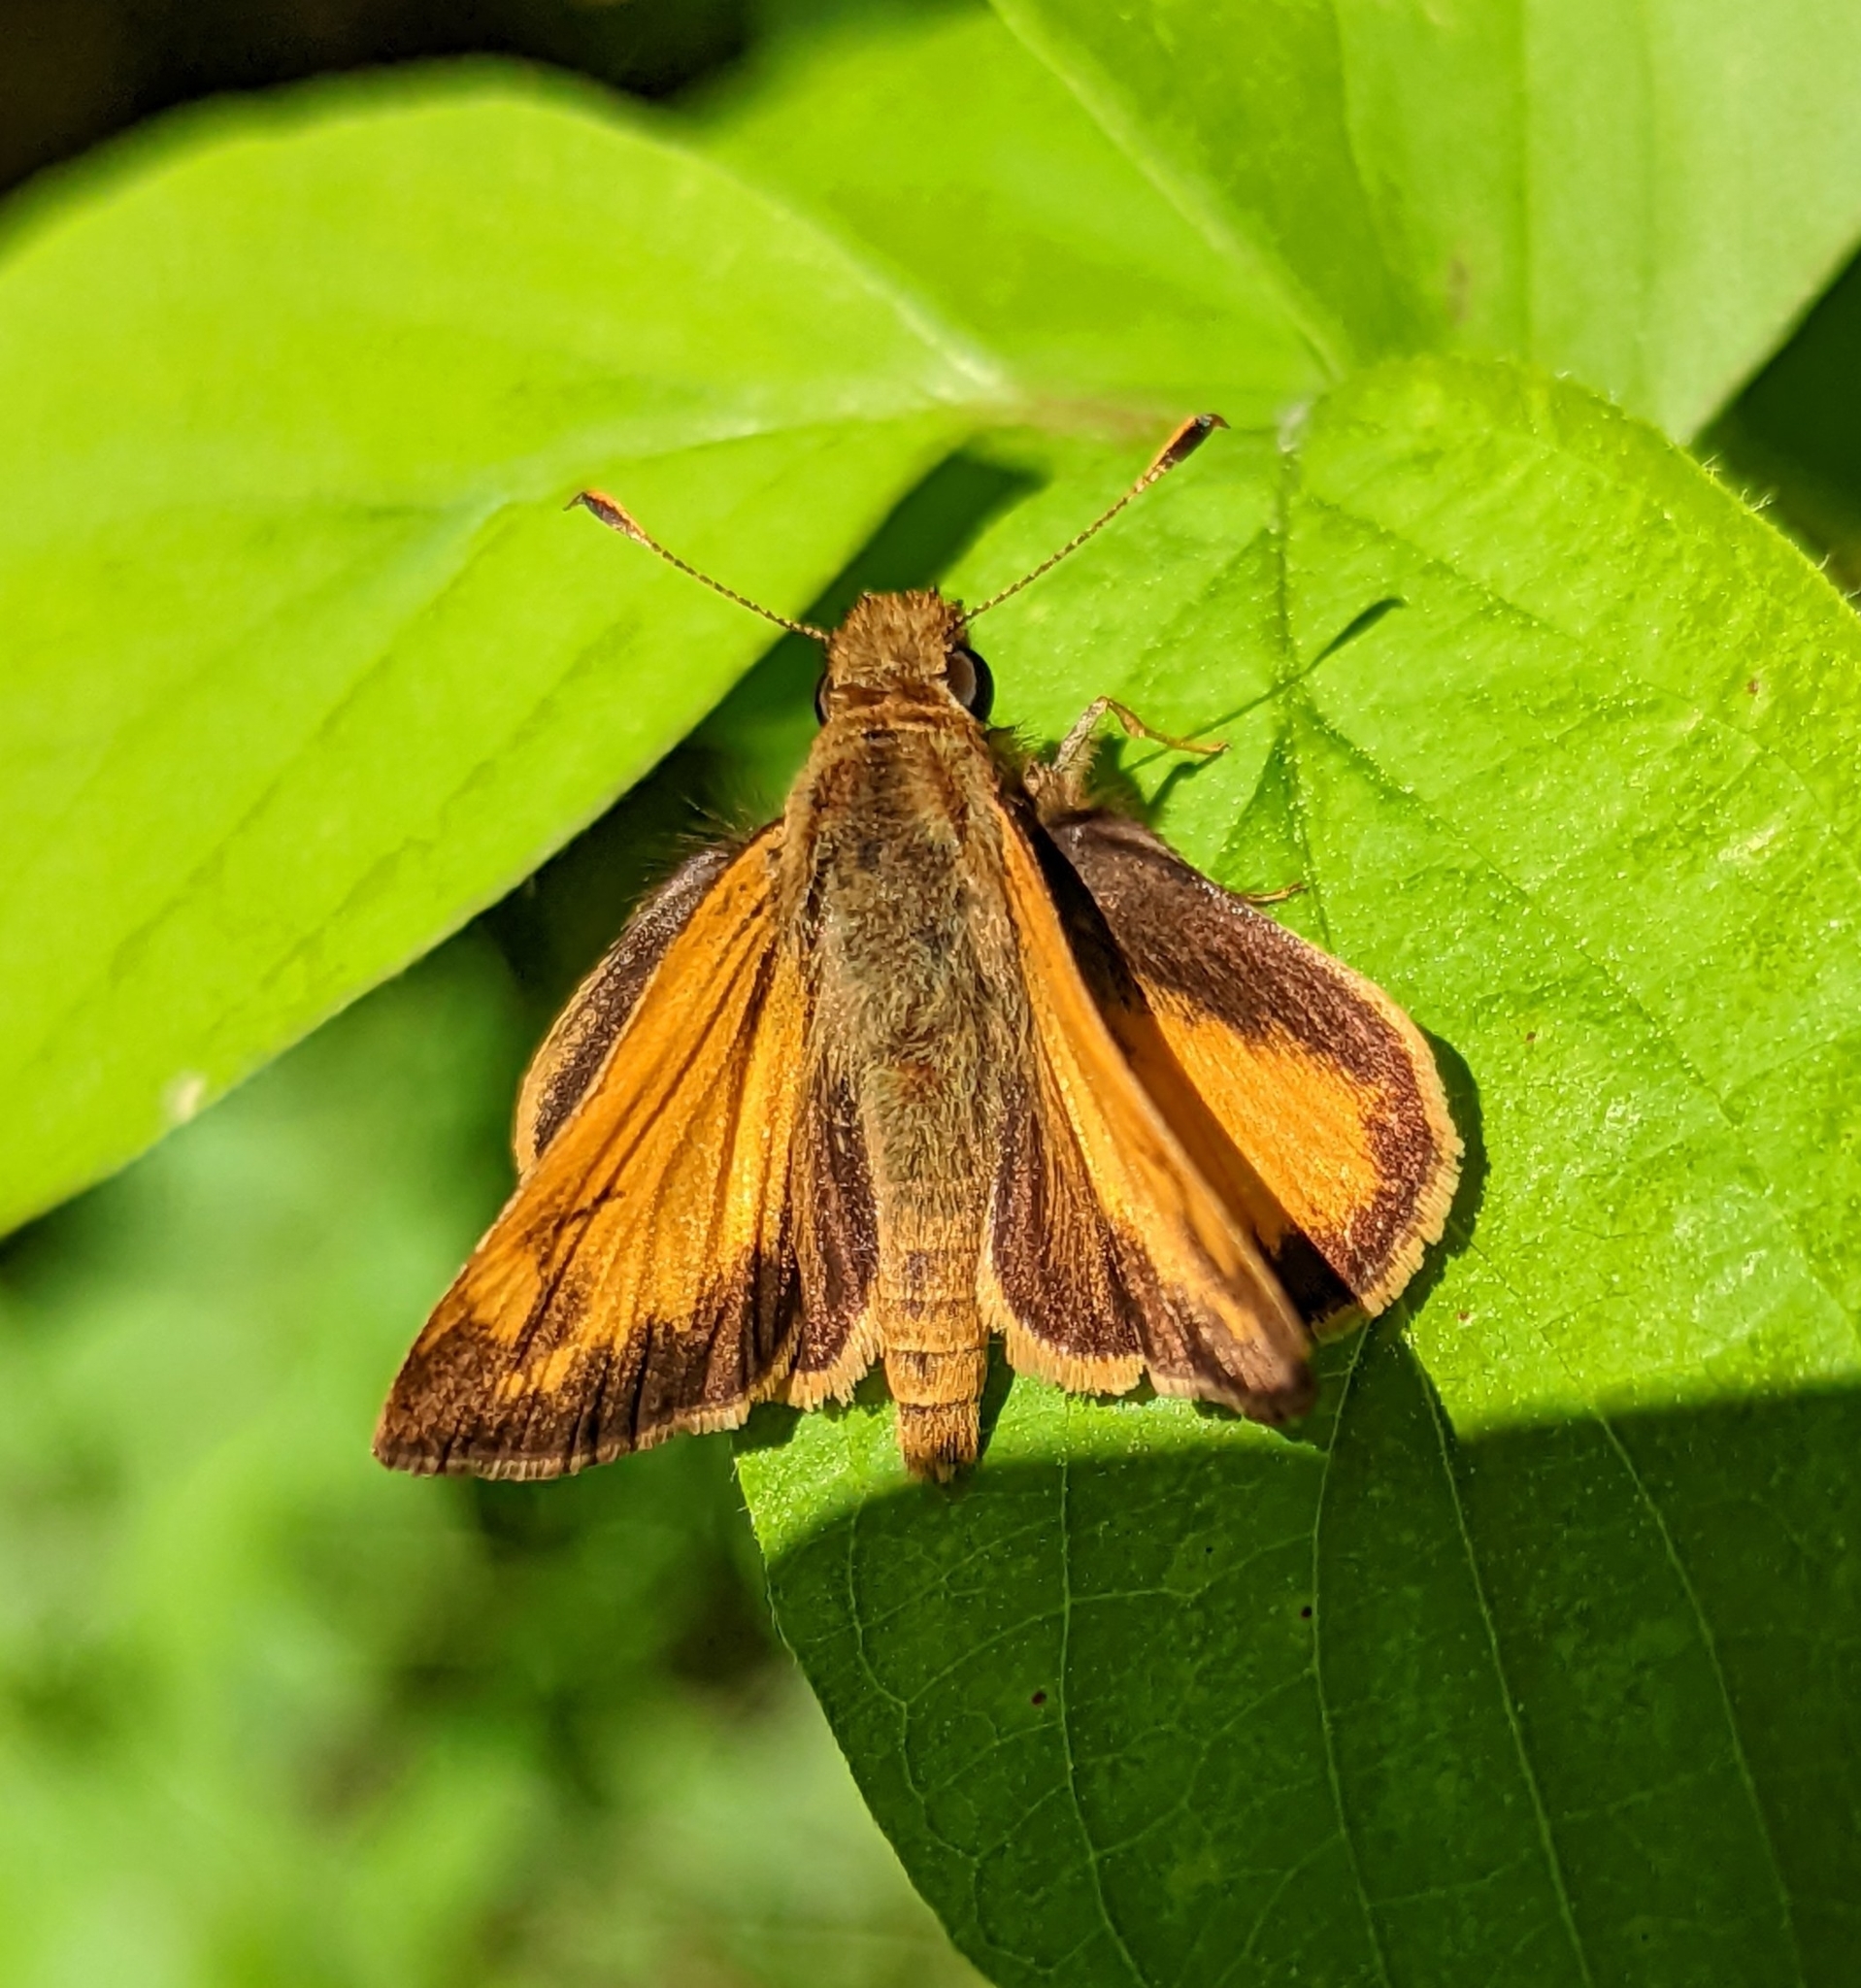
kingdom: Animalia
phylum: Arthropoda
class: Insecta
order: Lepidoptera
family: Hesperiidae
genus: Lon
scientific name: Lon zabulon
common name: Zabulon skipper
